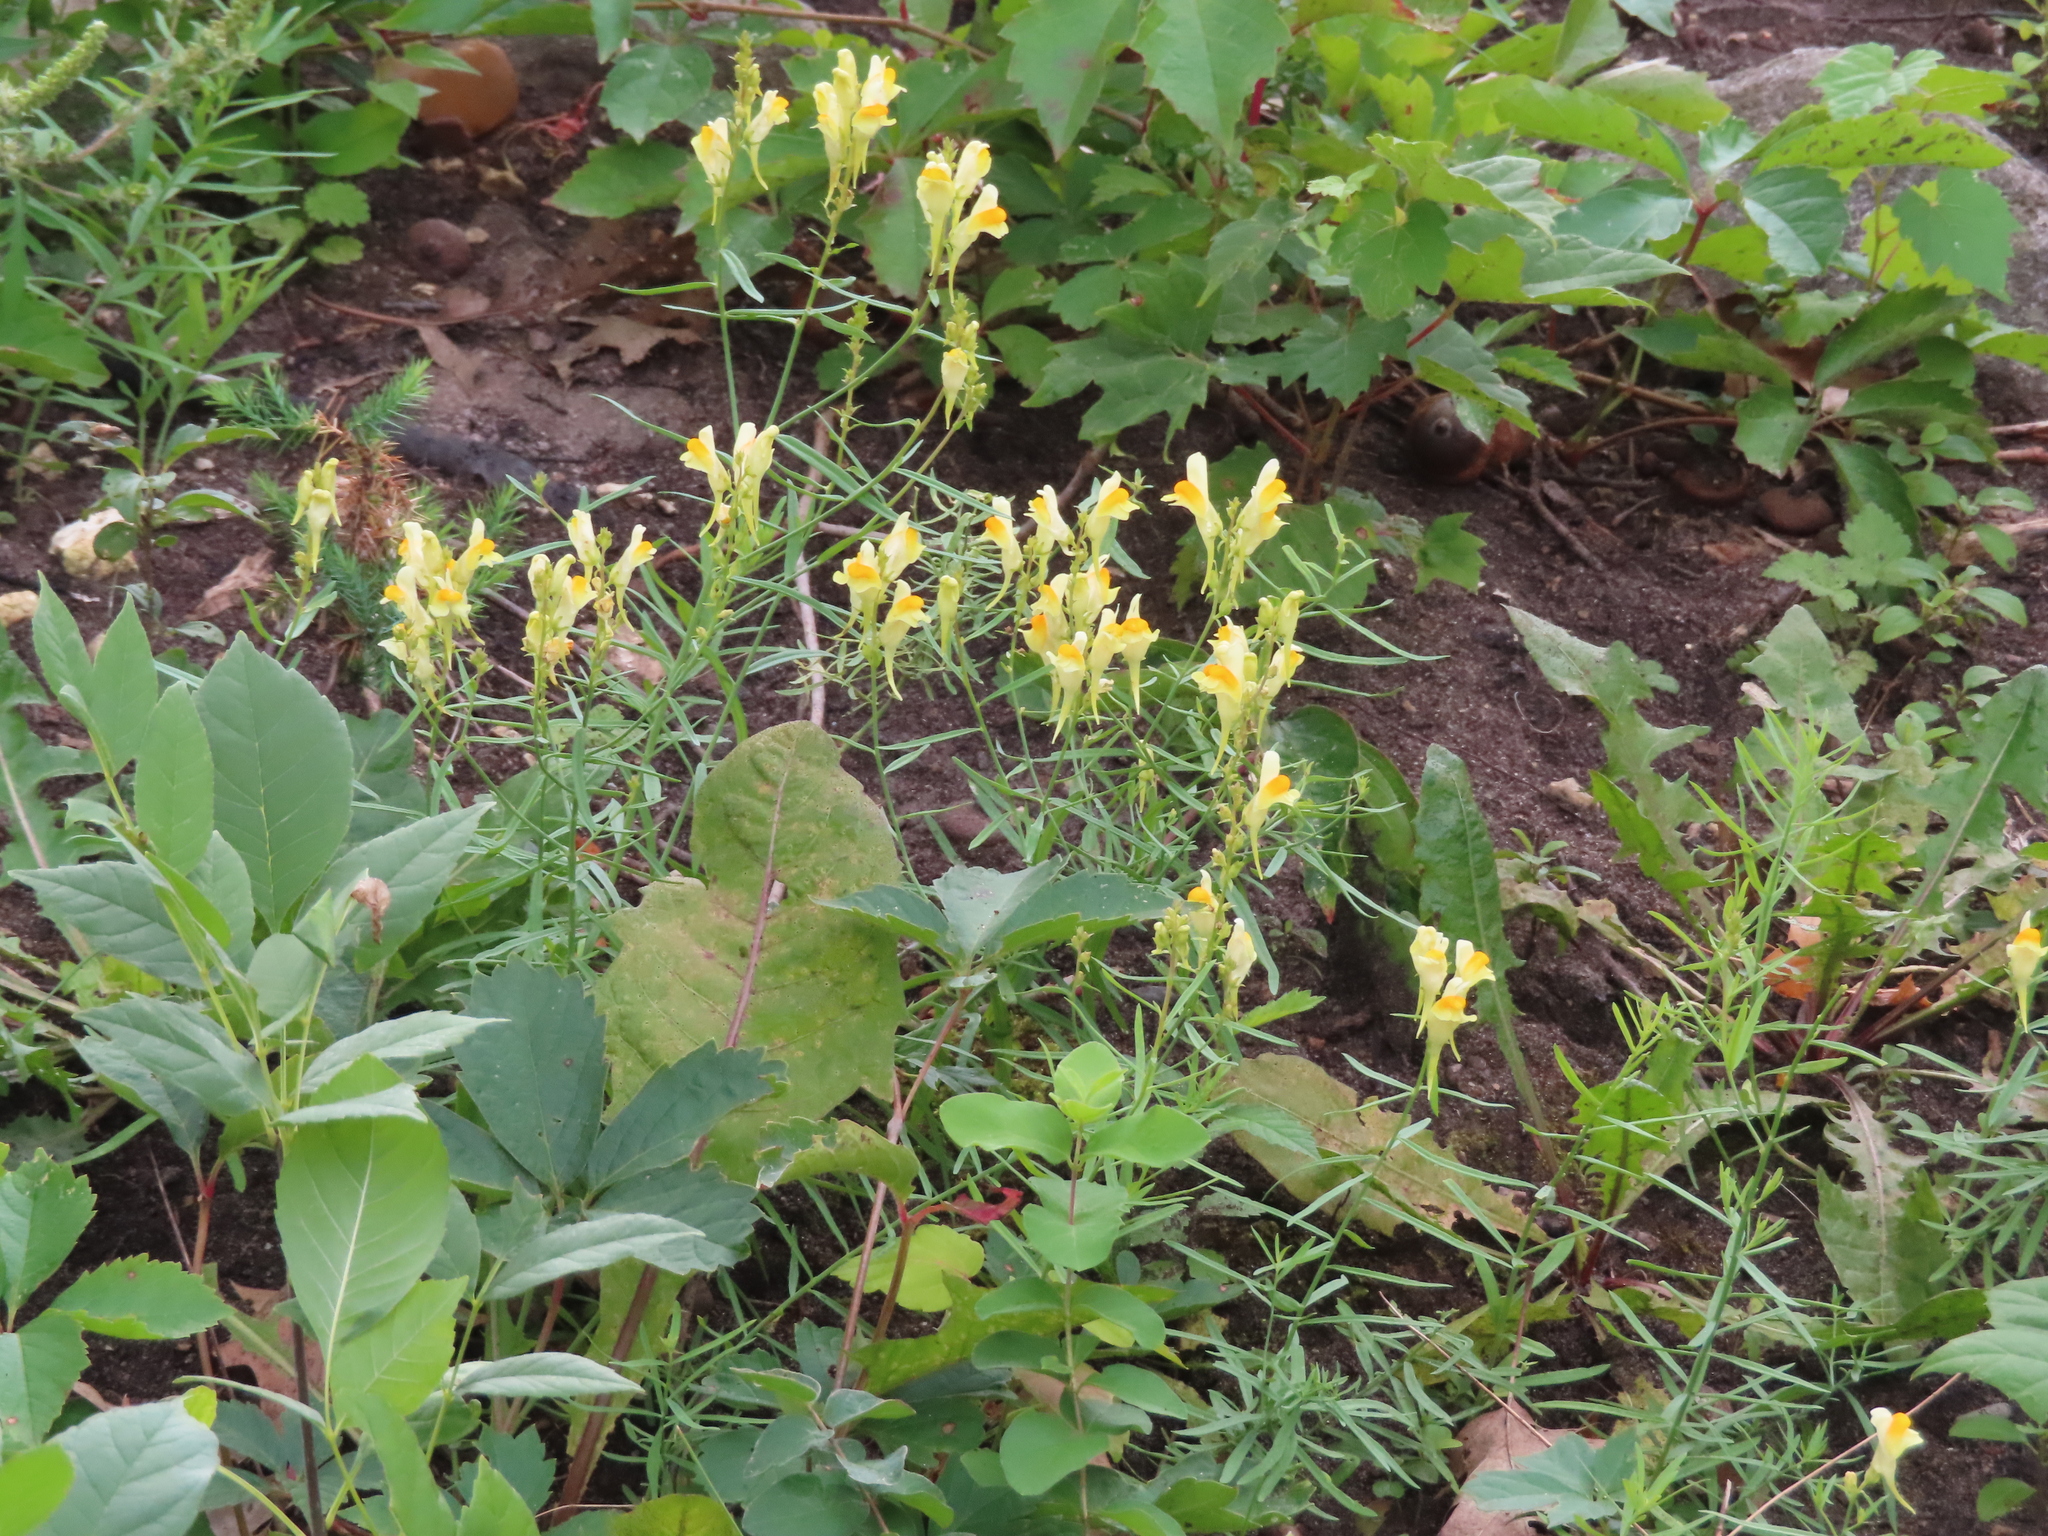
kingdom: Plantae
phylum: Tracheophyta
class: Magnoliopsida
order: Lamiales
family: Plantaginaceae
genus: Linaria
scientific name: Linaria vulgaris
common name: Butter and eggs
